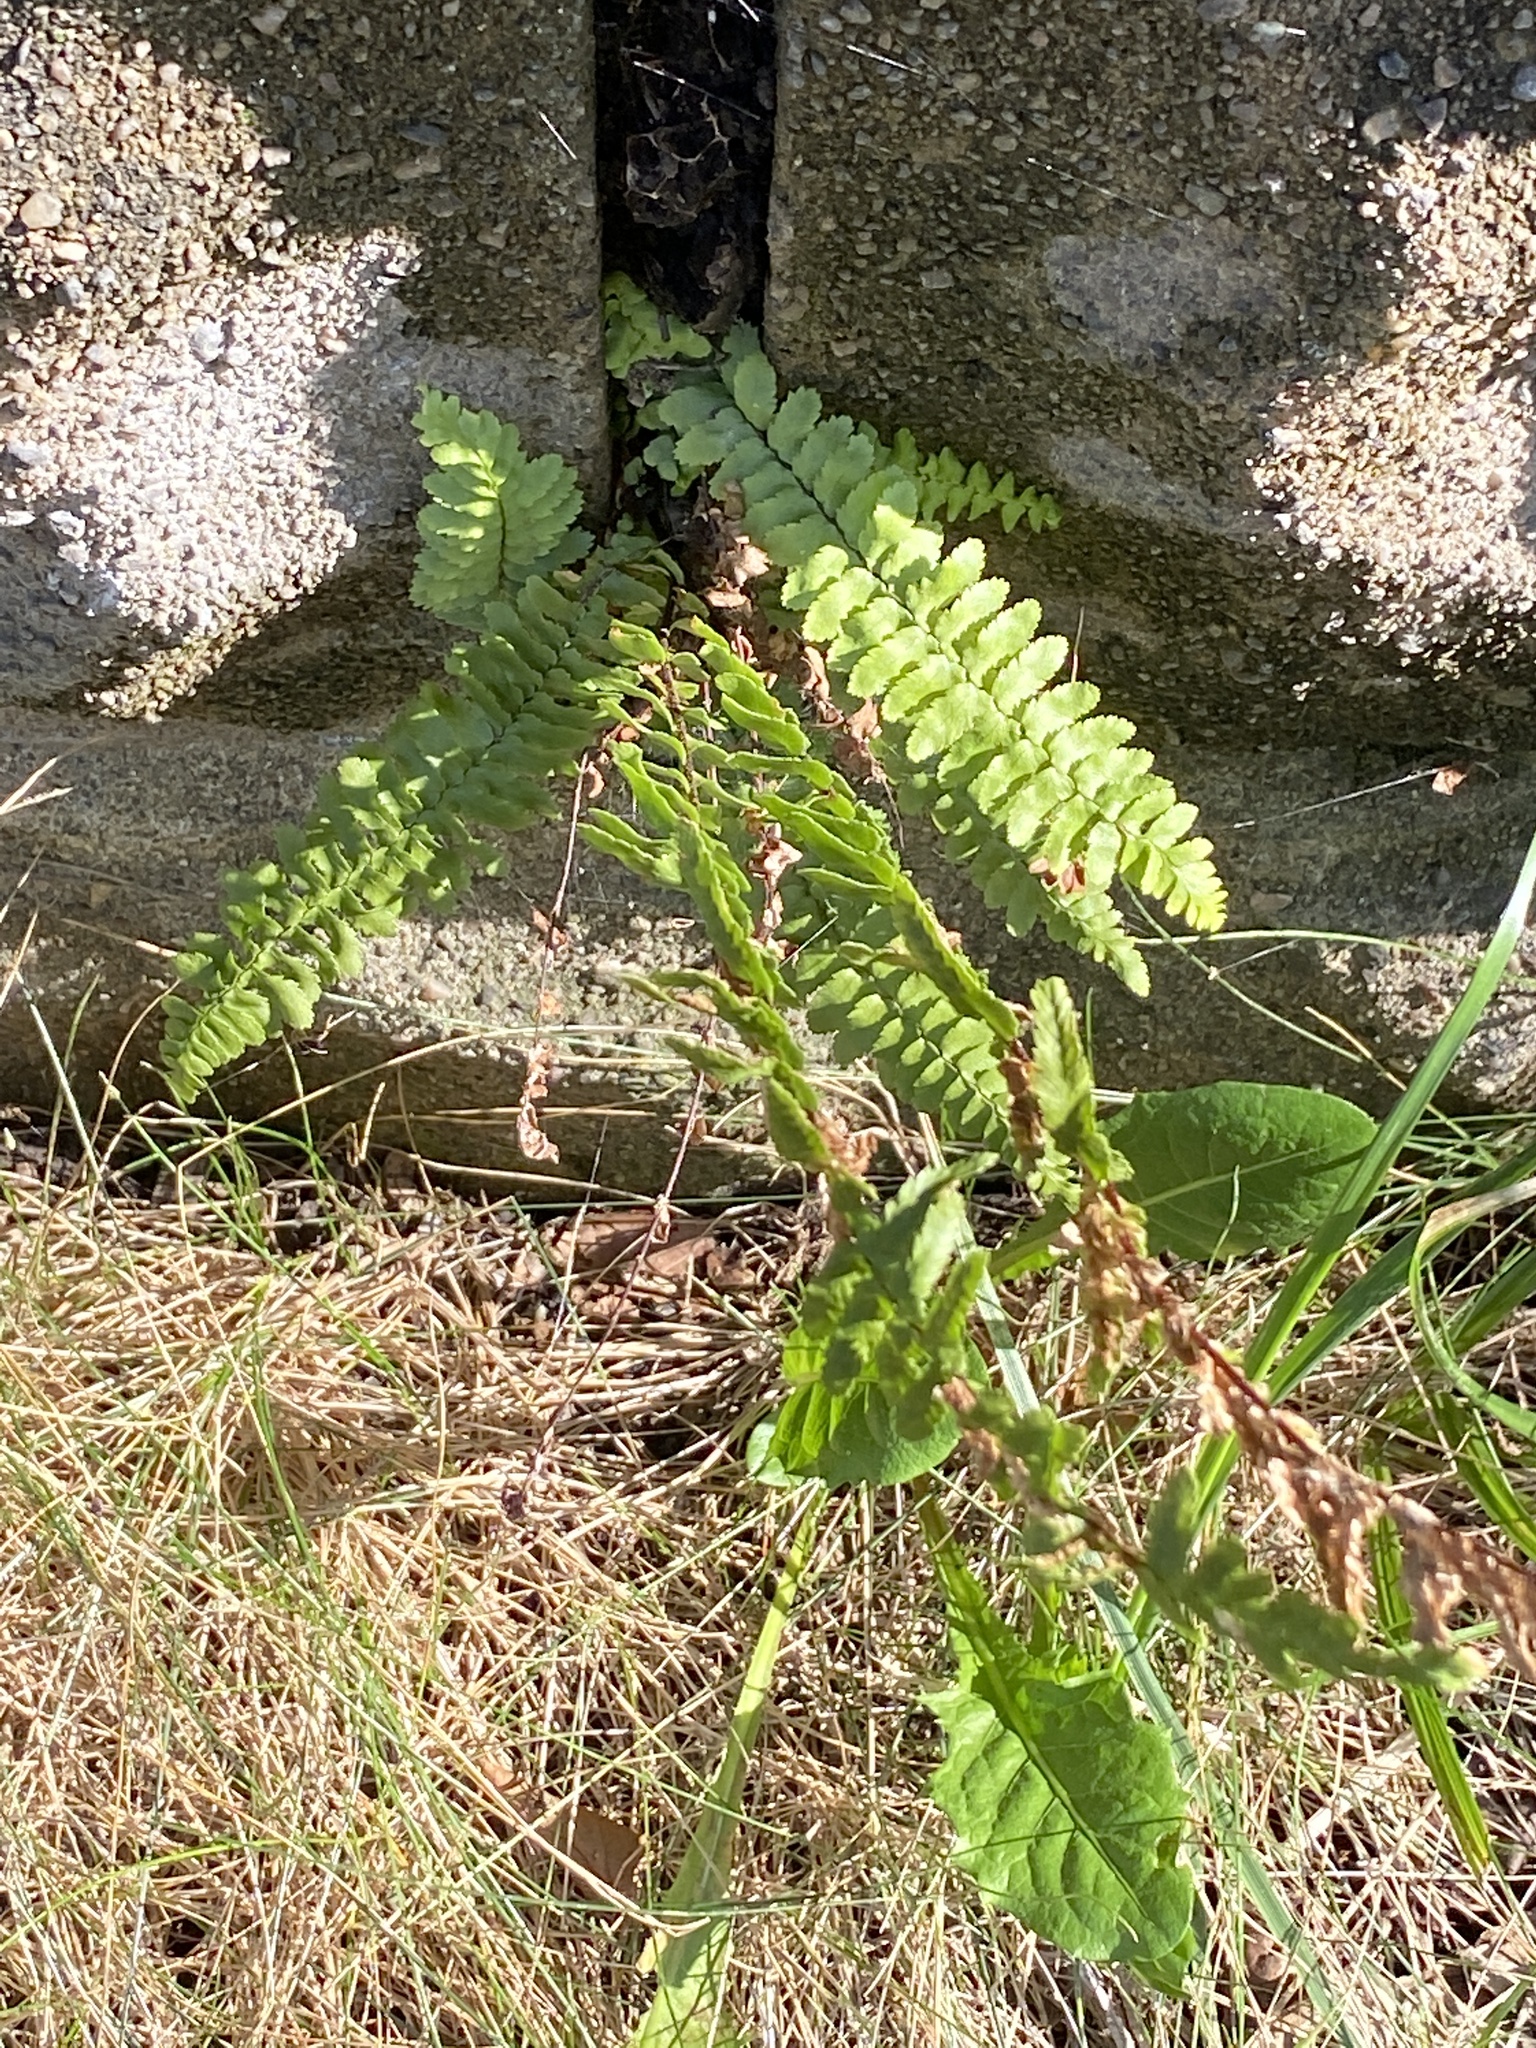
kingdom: Plantae
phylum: Tracheophyta
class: Polypodiopsida
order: Polypodiales
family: Aspleniaceae
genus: Asplenium
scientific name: Asplenium platyneuron
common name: Ebony spleenwort
